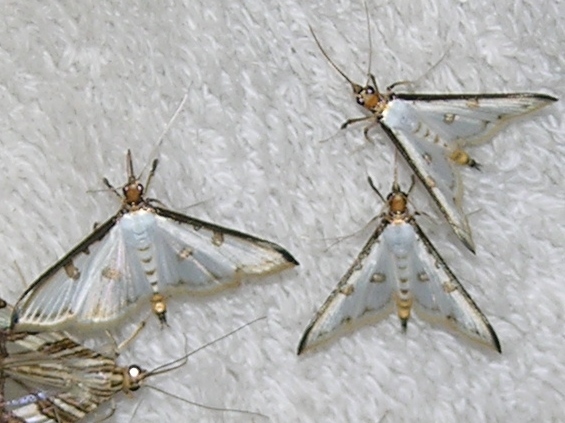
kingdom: Animalia
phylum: Arthropoda
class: Insecta
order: Lepidoptera
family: Crambidae
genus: Palpita
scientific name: Palpita metallata
